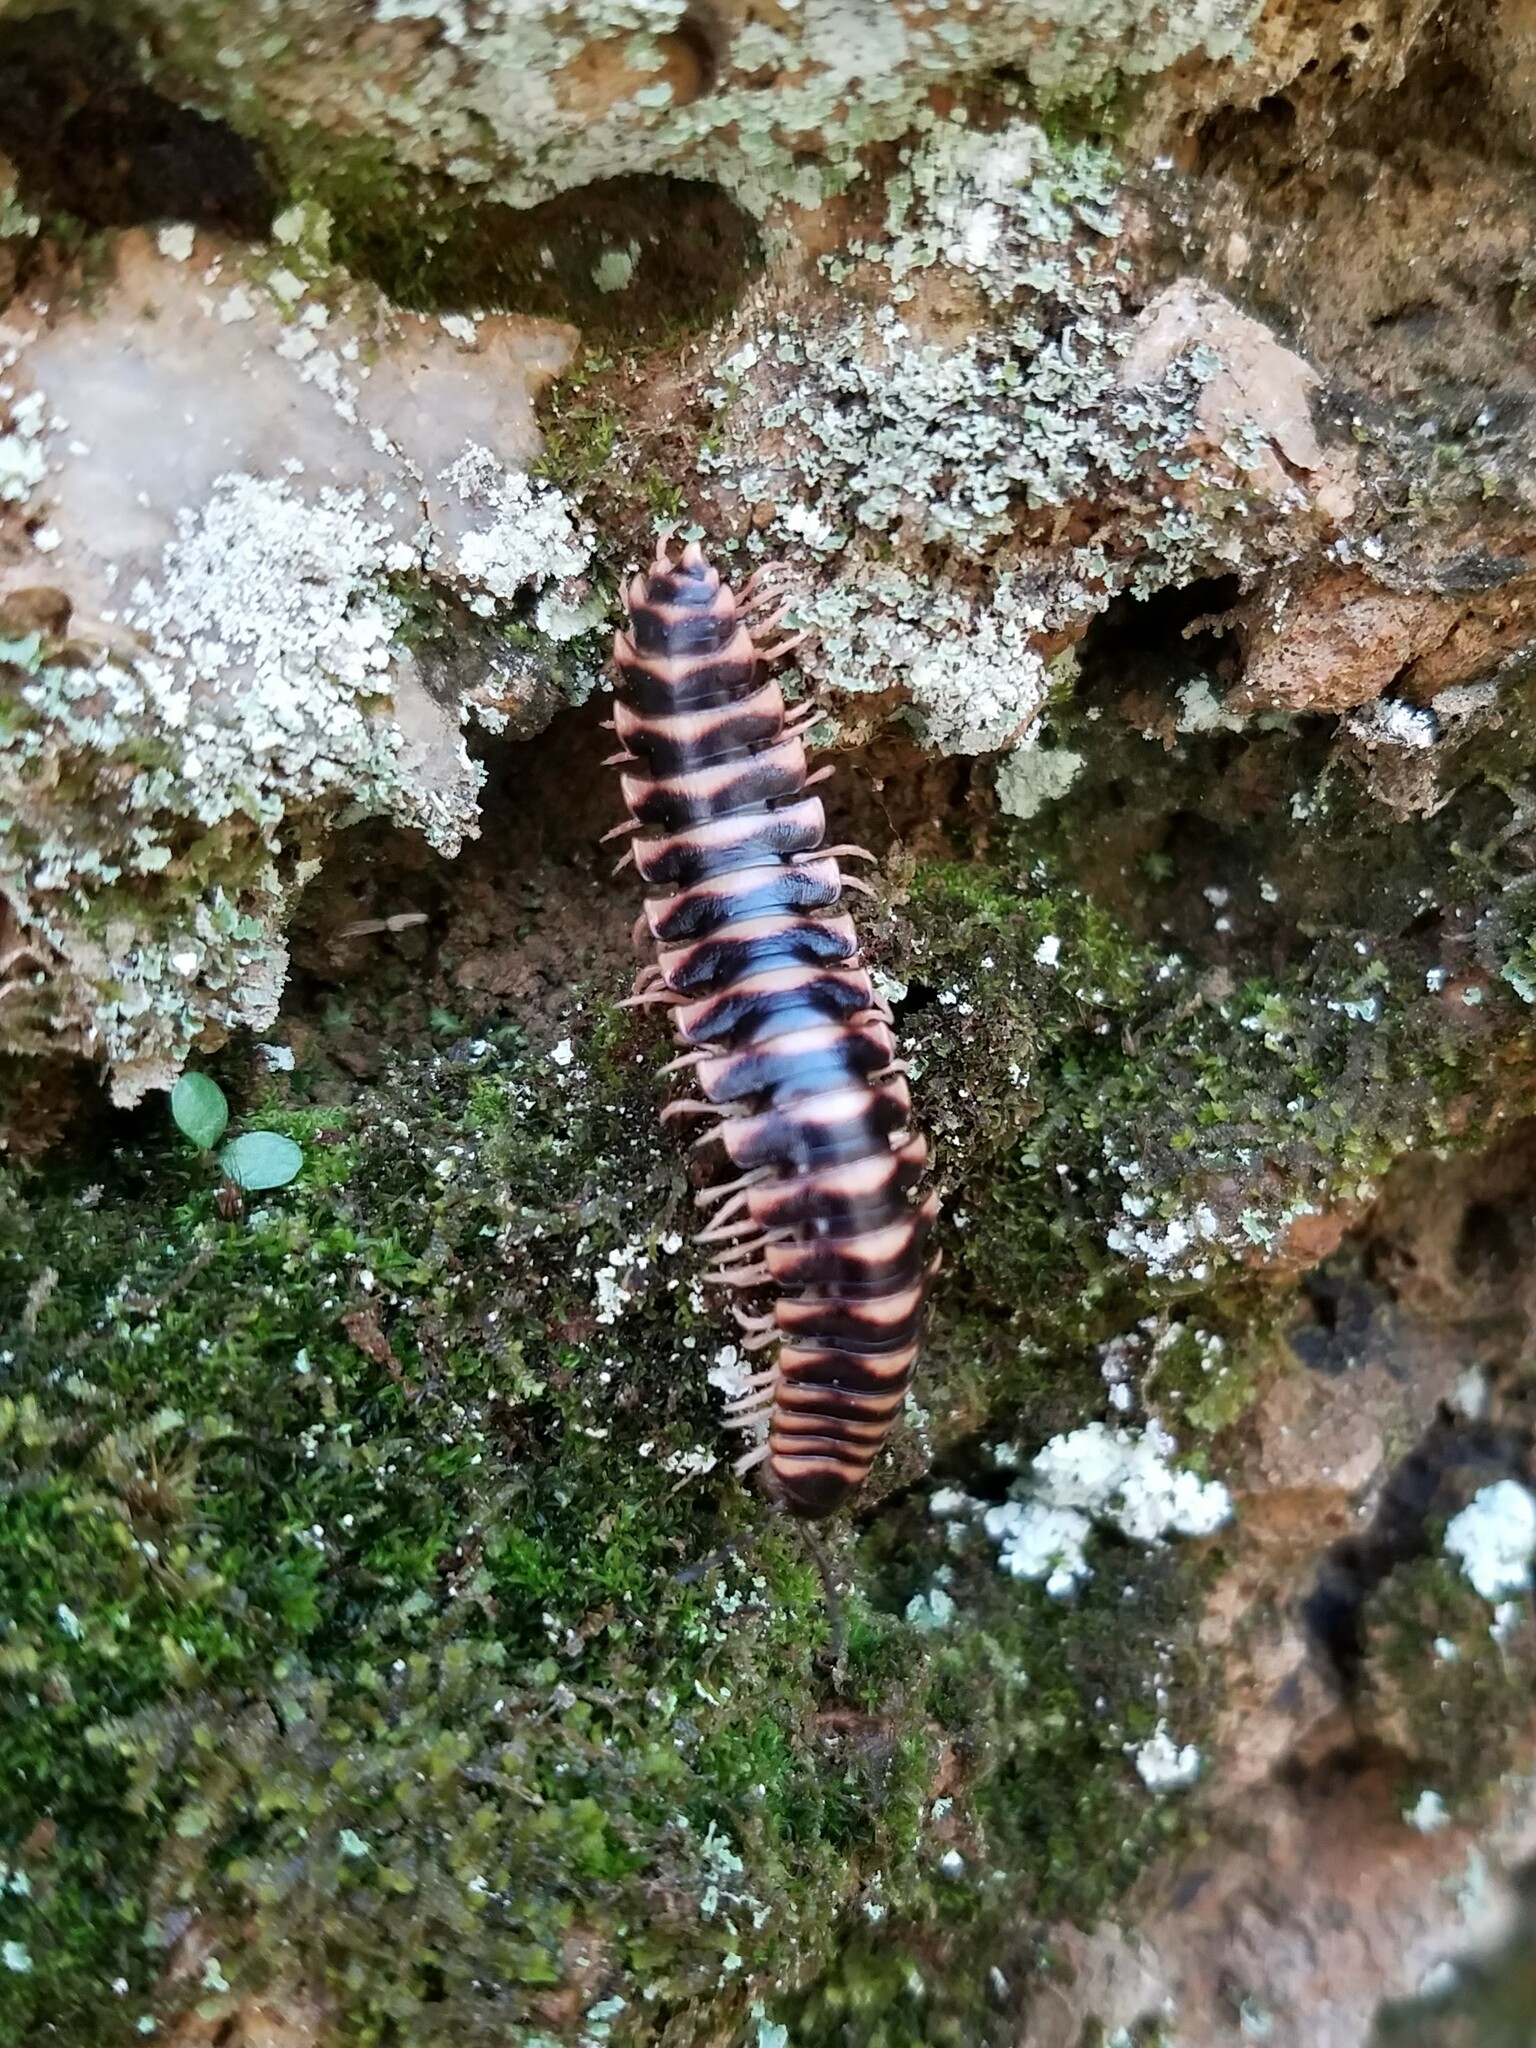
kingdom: Animalia
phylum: Arthropoda
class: Diplopoda
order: Polydesmida
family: Xystodesmidae
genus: Cherokia
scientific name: Cherokia georgiana
